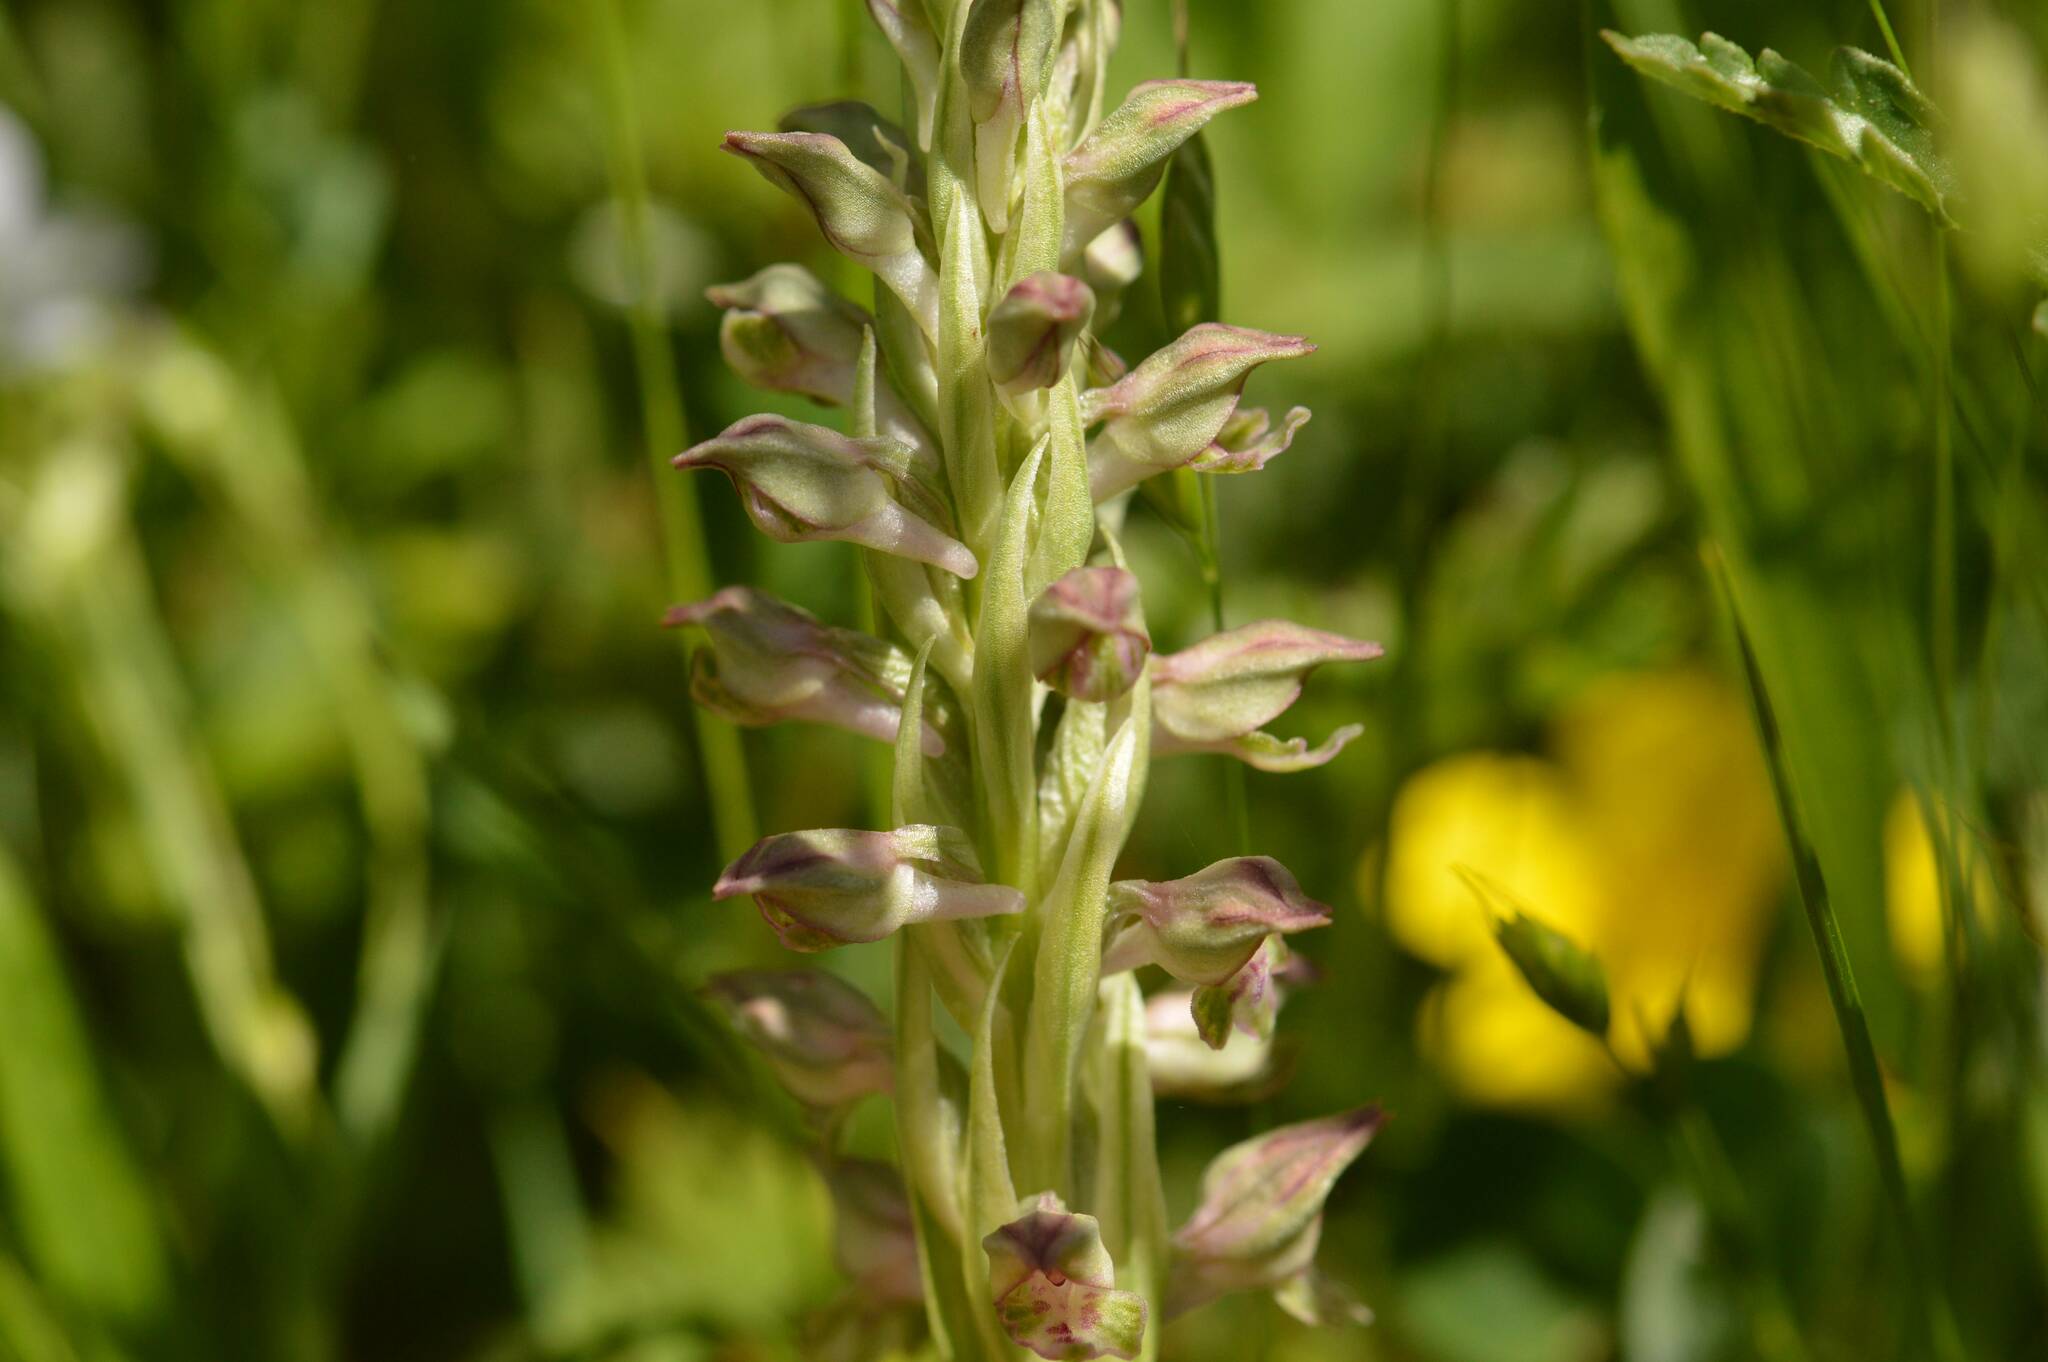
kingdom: Plantae
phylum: Tracheophyta
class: Liliopsida
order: Asparagales
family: Orchidaceae
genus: Anacamptis
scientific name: Anacamptis coriophora
